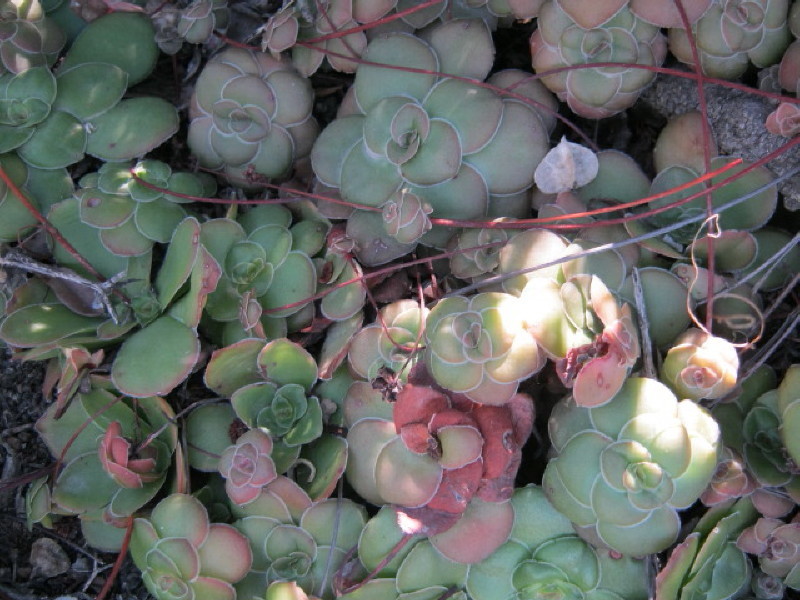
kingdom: Plantae
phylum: Tracheophyta
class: Magnoliopsida
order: Saxifragales
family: Crassulaceae
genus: Crassula
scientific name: Crassula orbicularis
